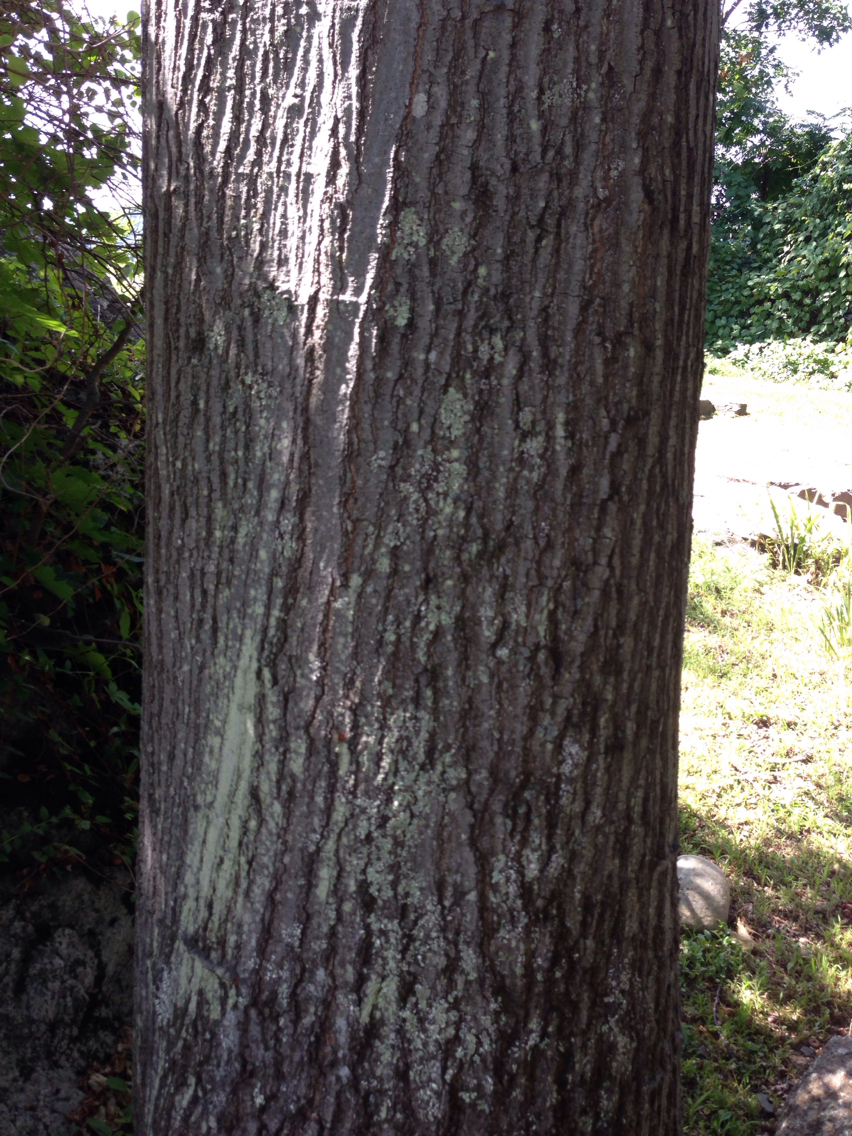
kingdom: Plantae
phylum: Tracheophyta
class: Magnoliopsida
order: Fagales
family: Fagaceae
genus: Quercus
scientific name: Quercus rubra
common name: Red oak
